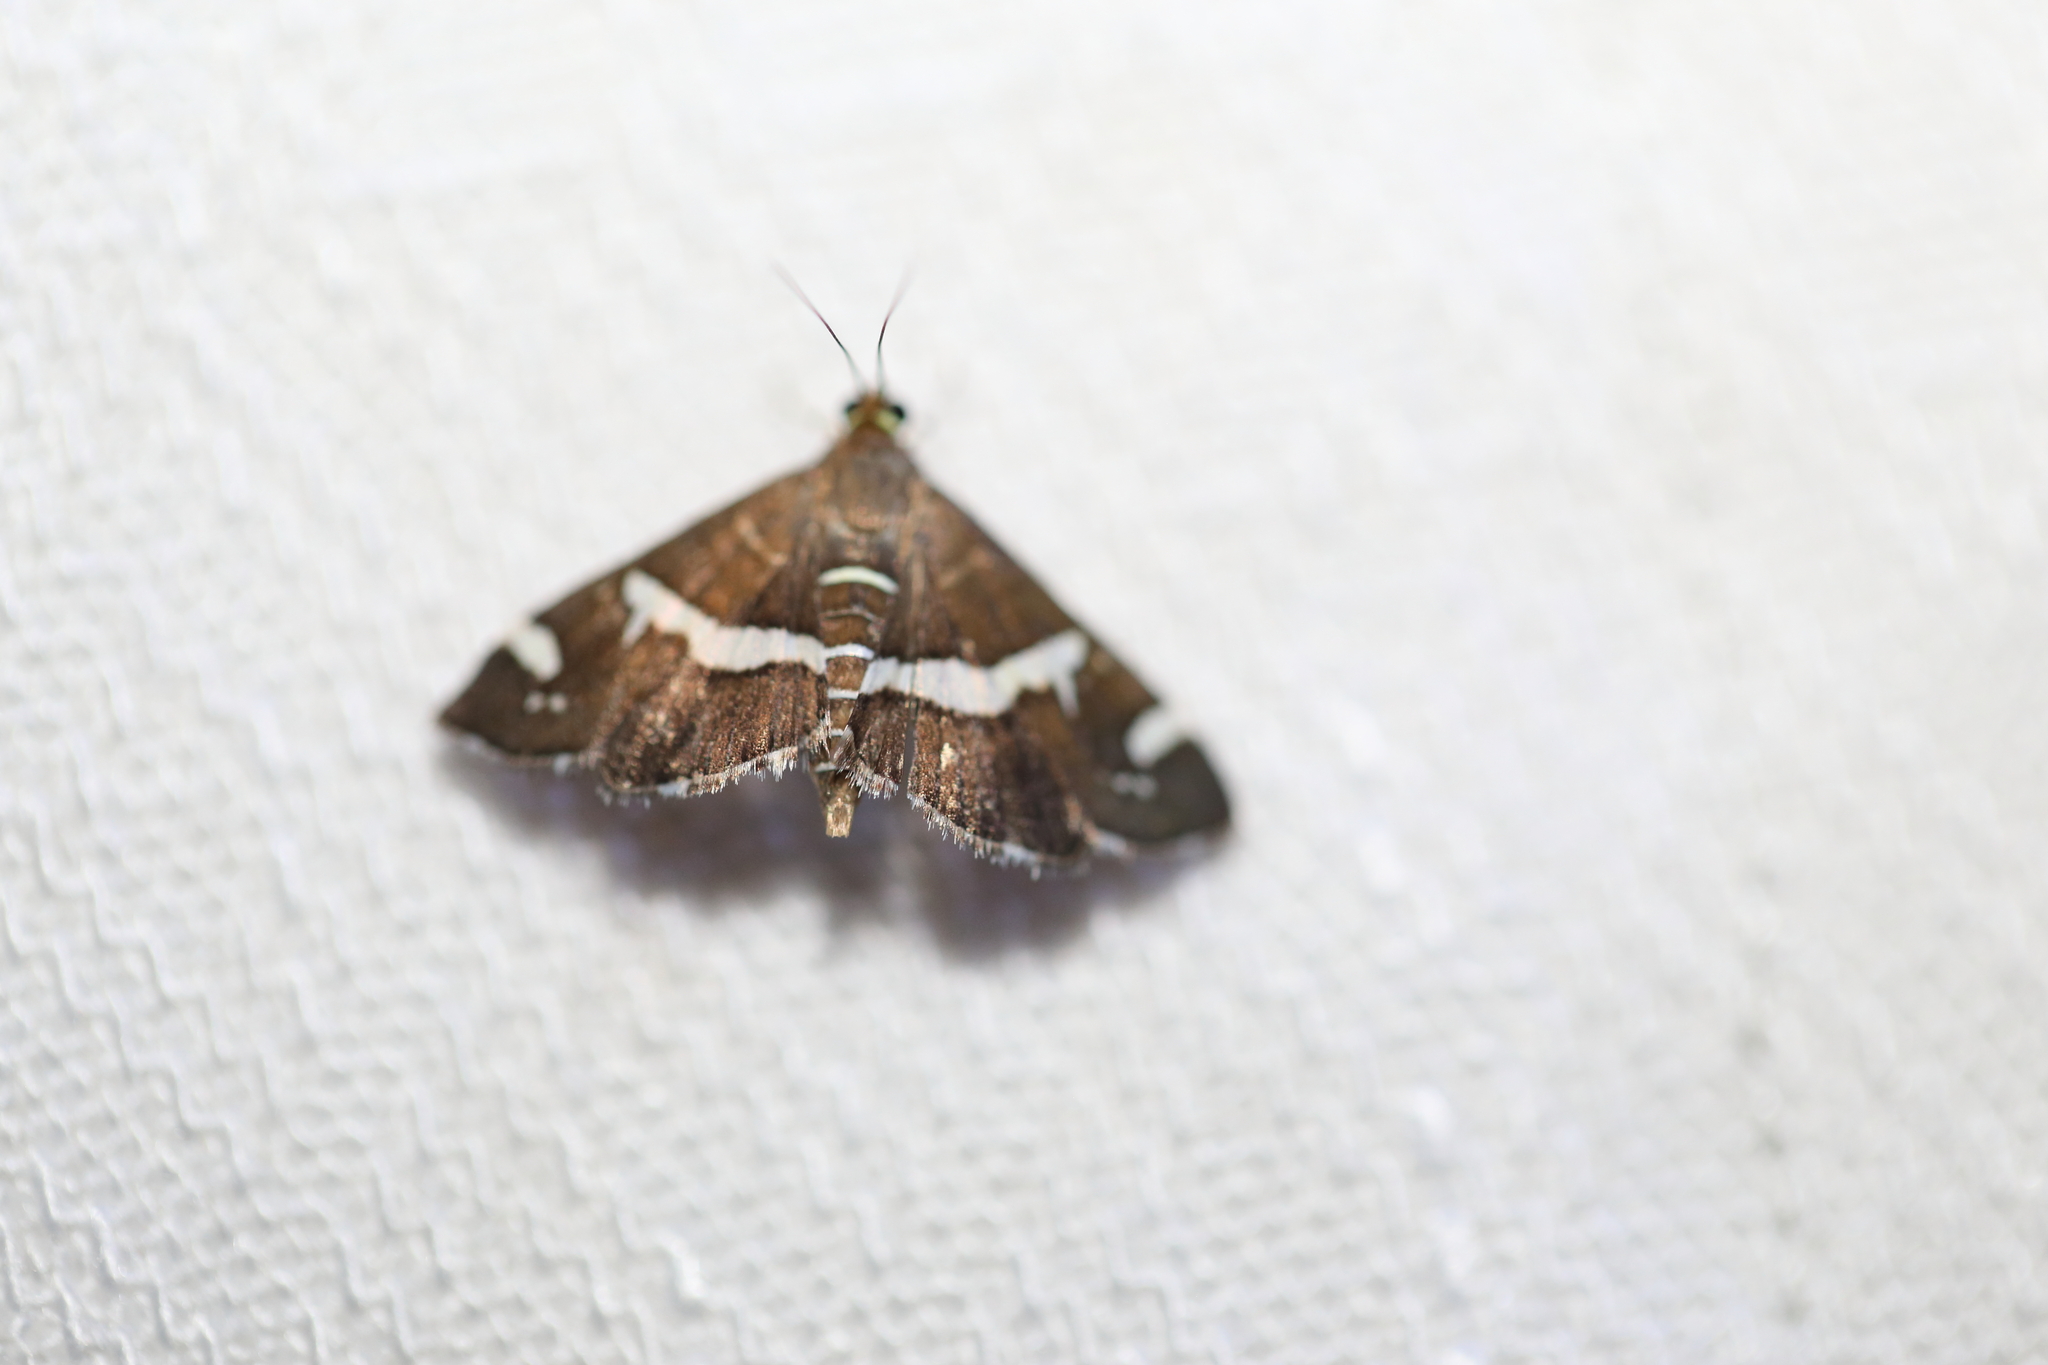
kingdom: Animalia
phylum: Arthropoda
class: Insecta
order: Lepidoptera
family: Crambidae
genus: Spoladea
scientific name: Spoladea recurvalis
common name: Beet webworm moth
